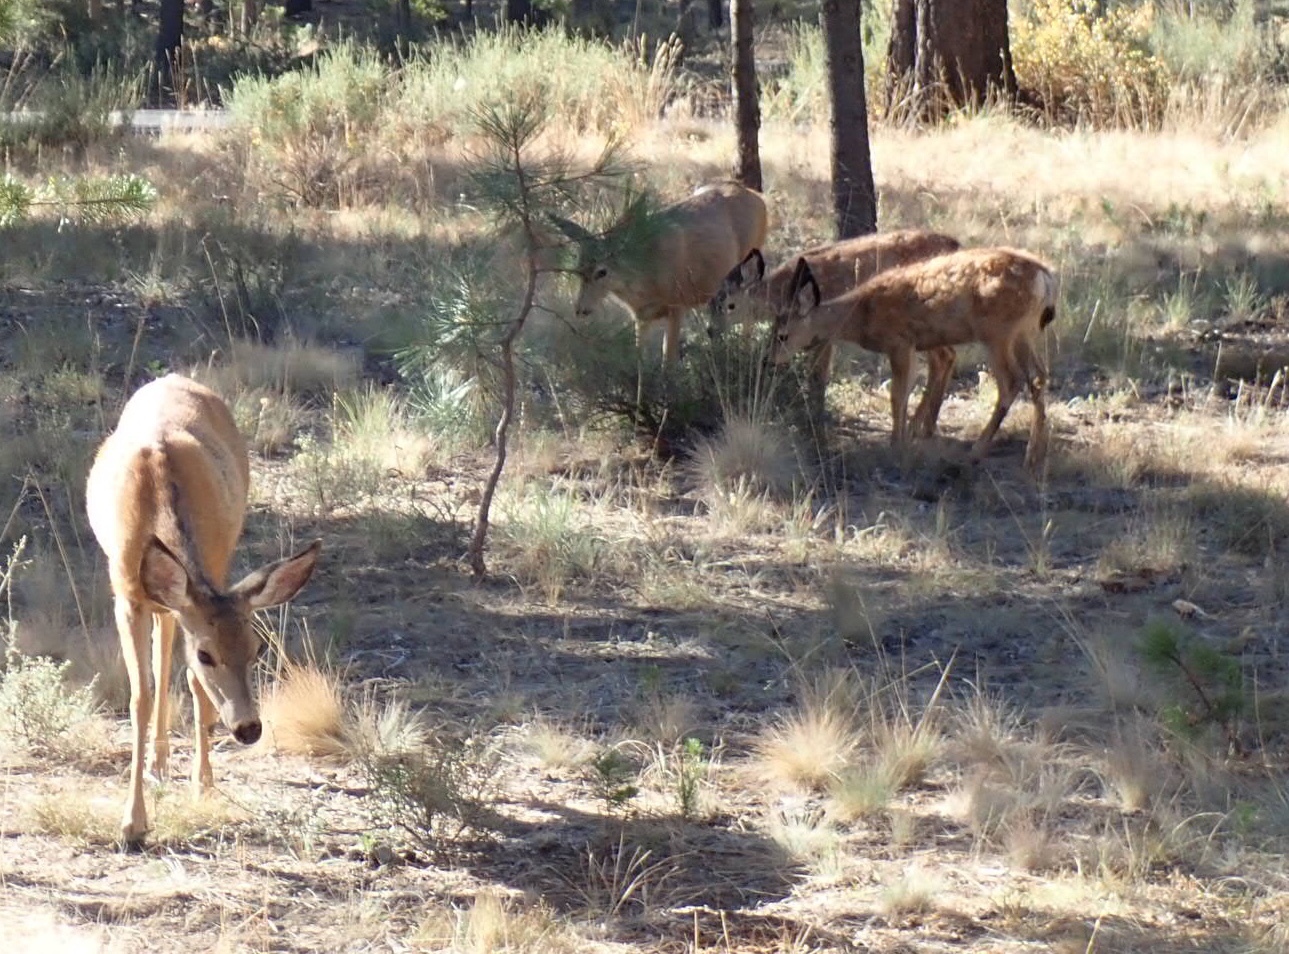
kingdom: Animalia
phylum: Chordata
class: Mammalia
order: Artiodactyla
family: Cervidae
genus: Odocoileus
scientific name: Odocoileus hemionus
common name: Mule deer
